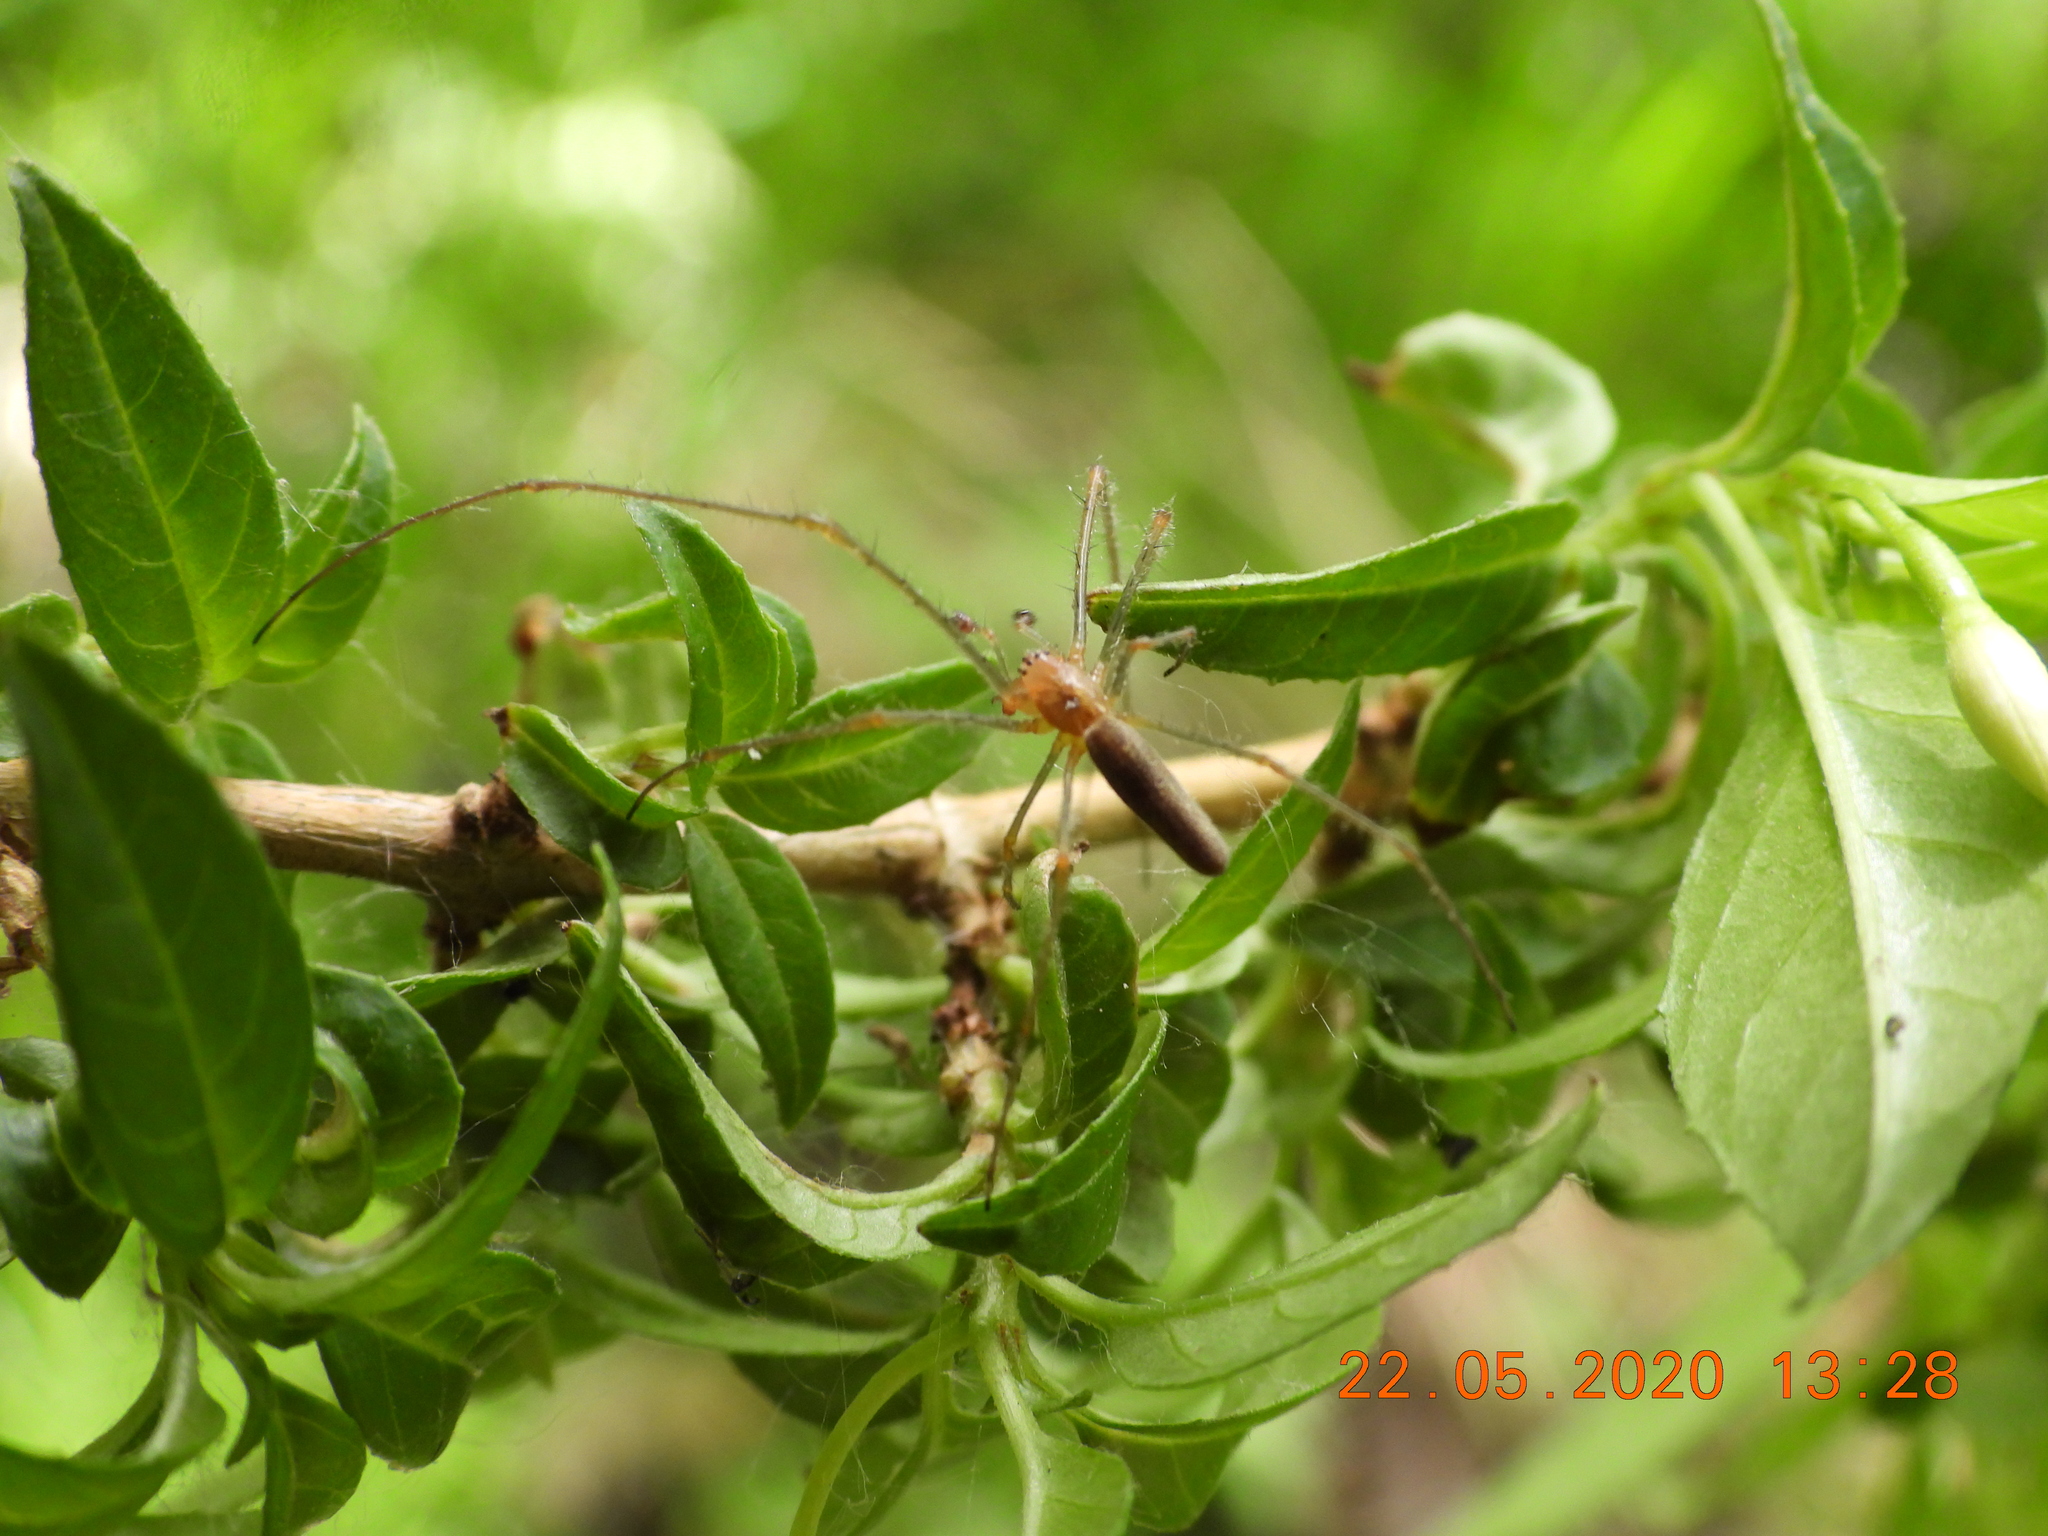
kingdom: Animalia
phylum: Arthropoda
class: Arachnida
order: Araneae
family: Tetragnathidae
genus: Tetragnatha
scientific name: Tetragnatha extensa
